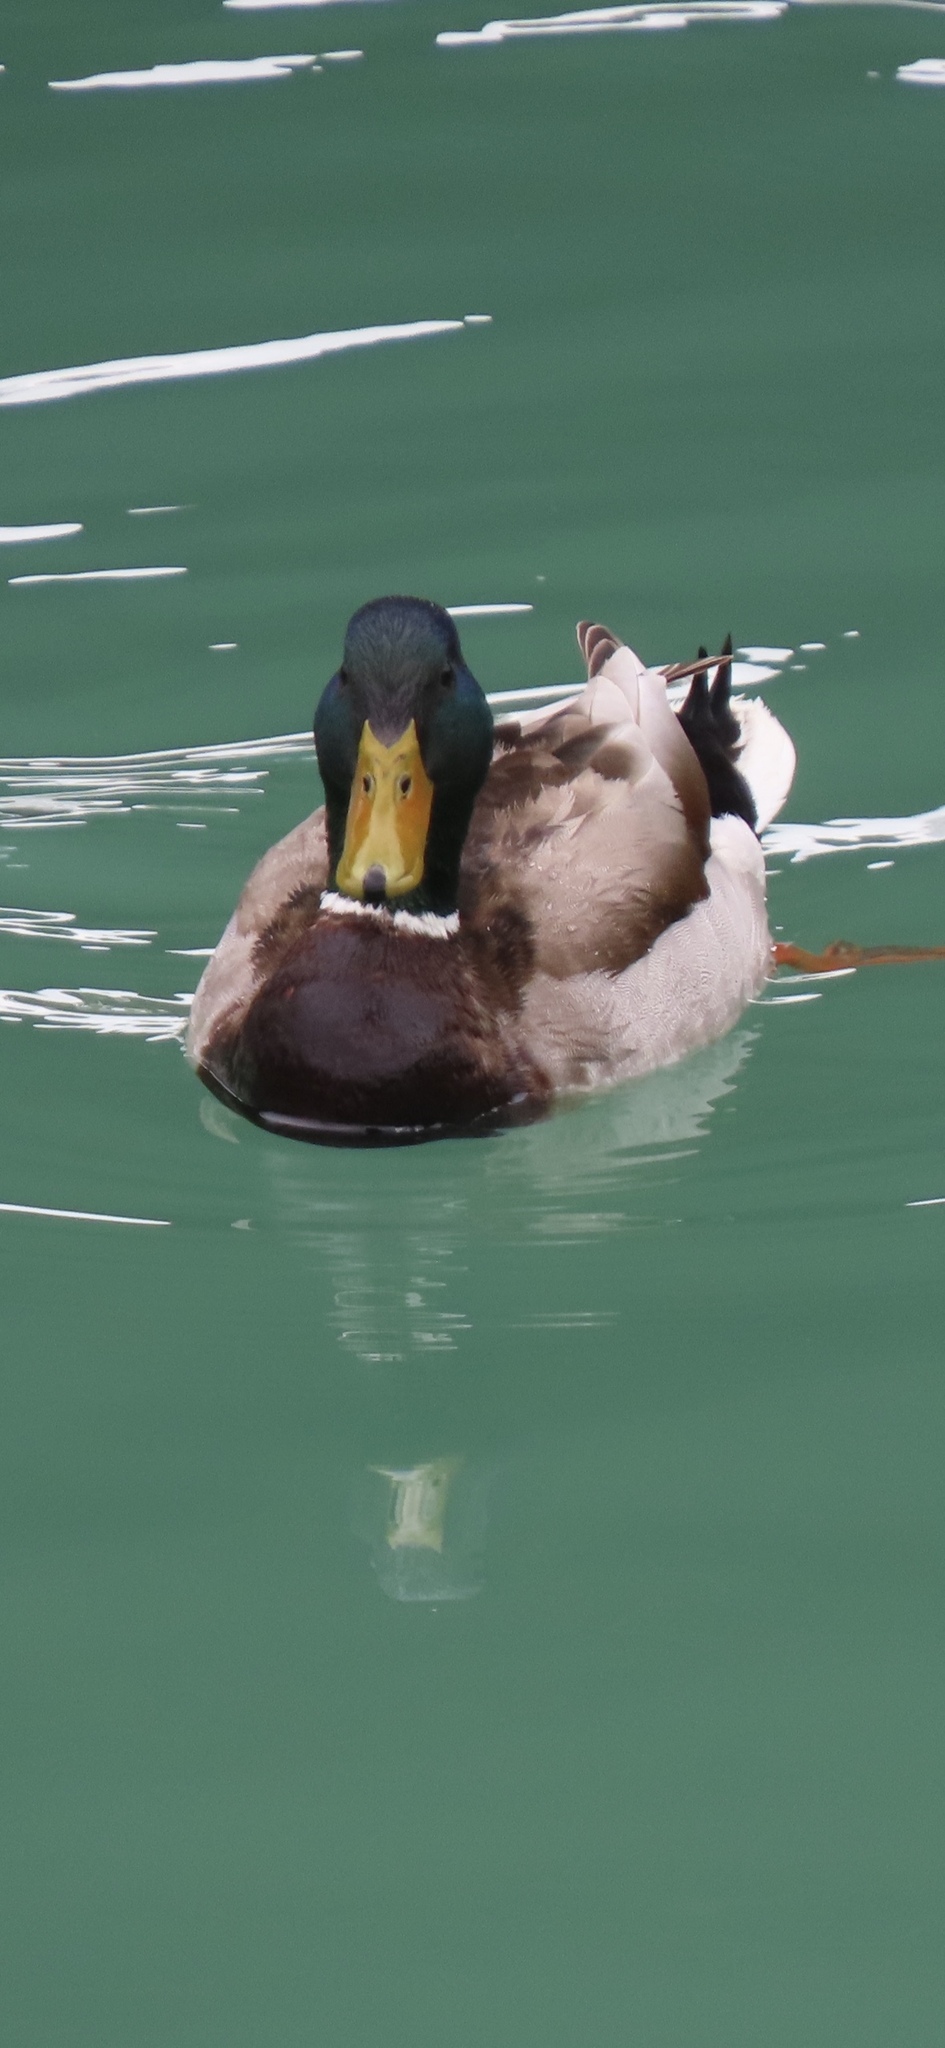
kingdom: Animalia
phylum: Chordata
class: Aves
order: Anseriformes
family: Anatidae
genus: Anas
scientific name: Anas platyrhynchos
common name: Mallard
